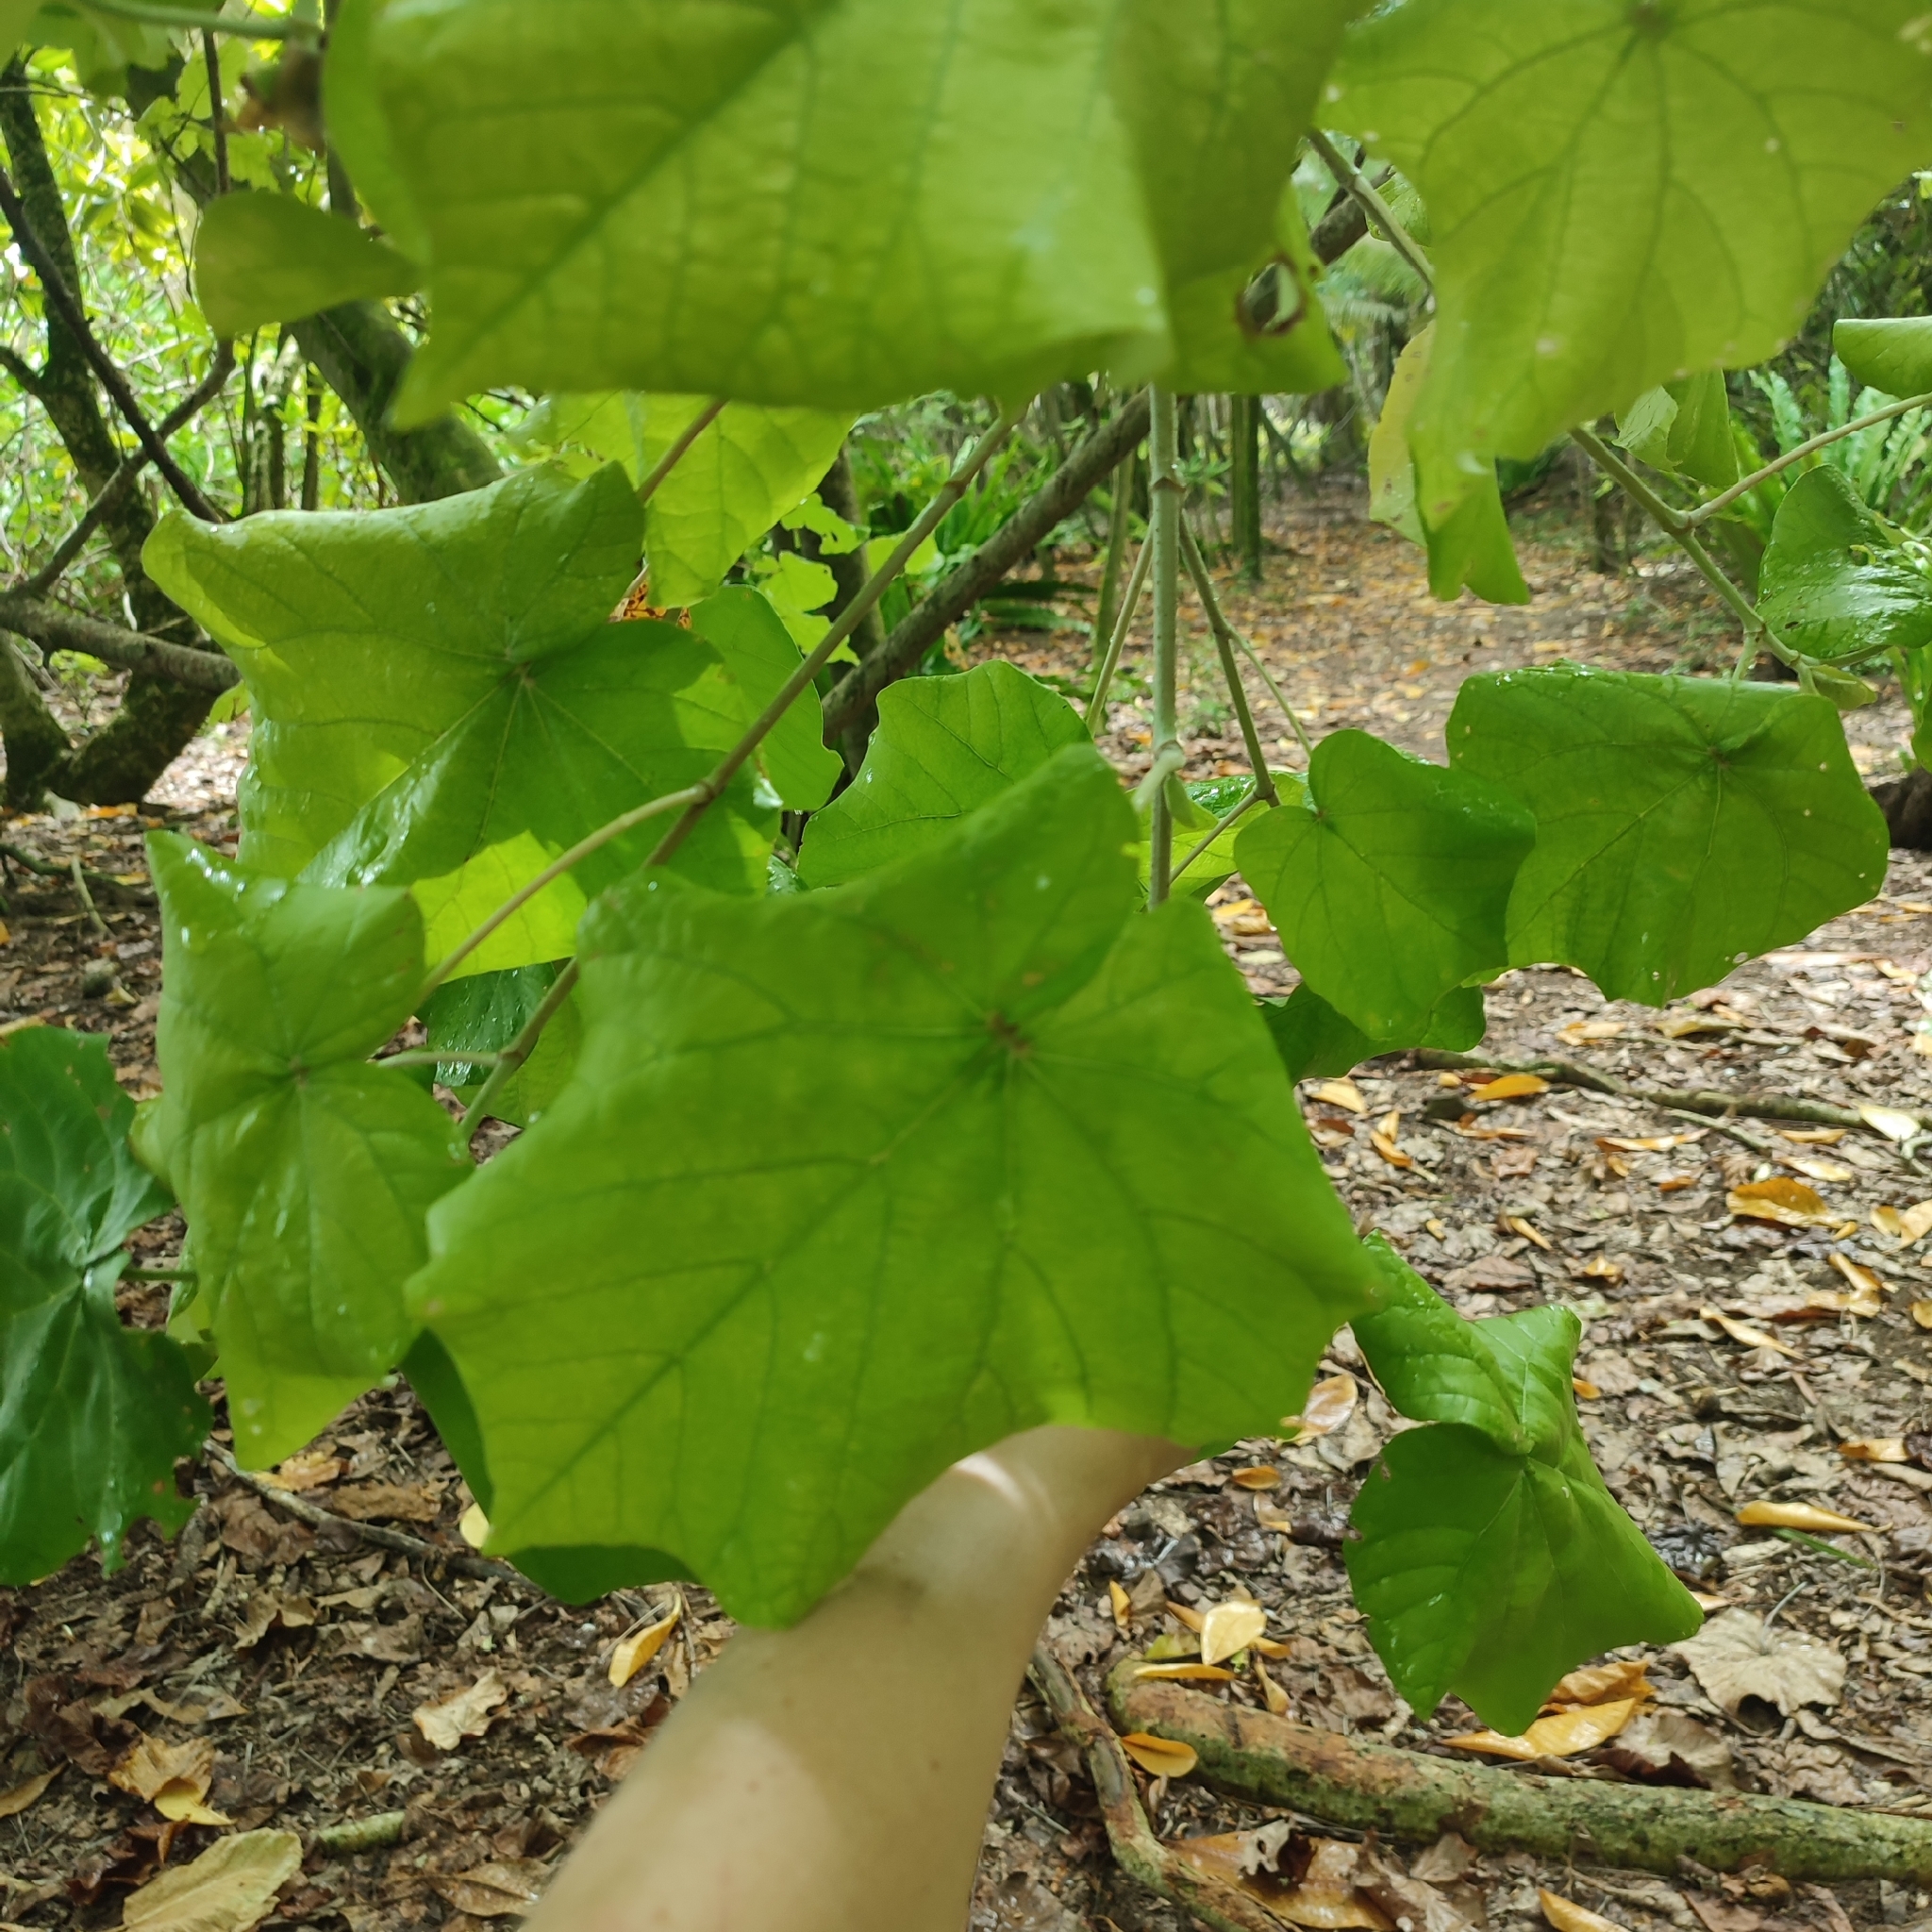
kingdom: Plantae
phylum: Tracheophyta
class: Magnoliopsida
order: Malvales
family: Malvaceae
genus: Talipariti
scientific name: Talipariti tiliaceum
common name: Sea hibiscus
